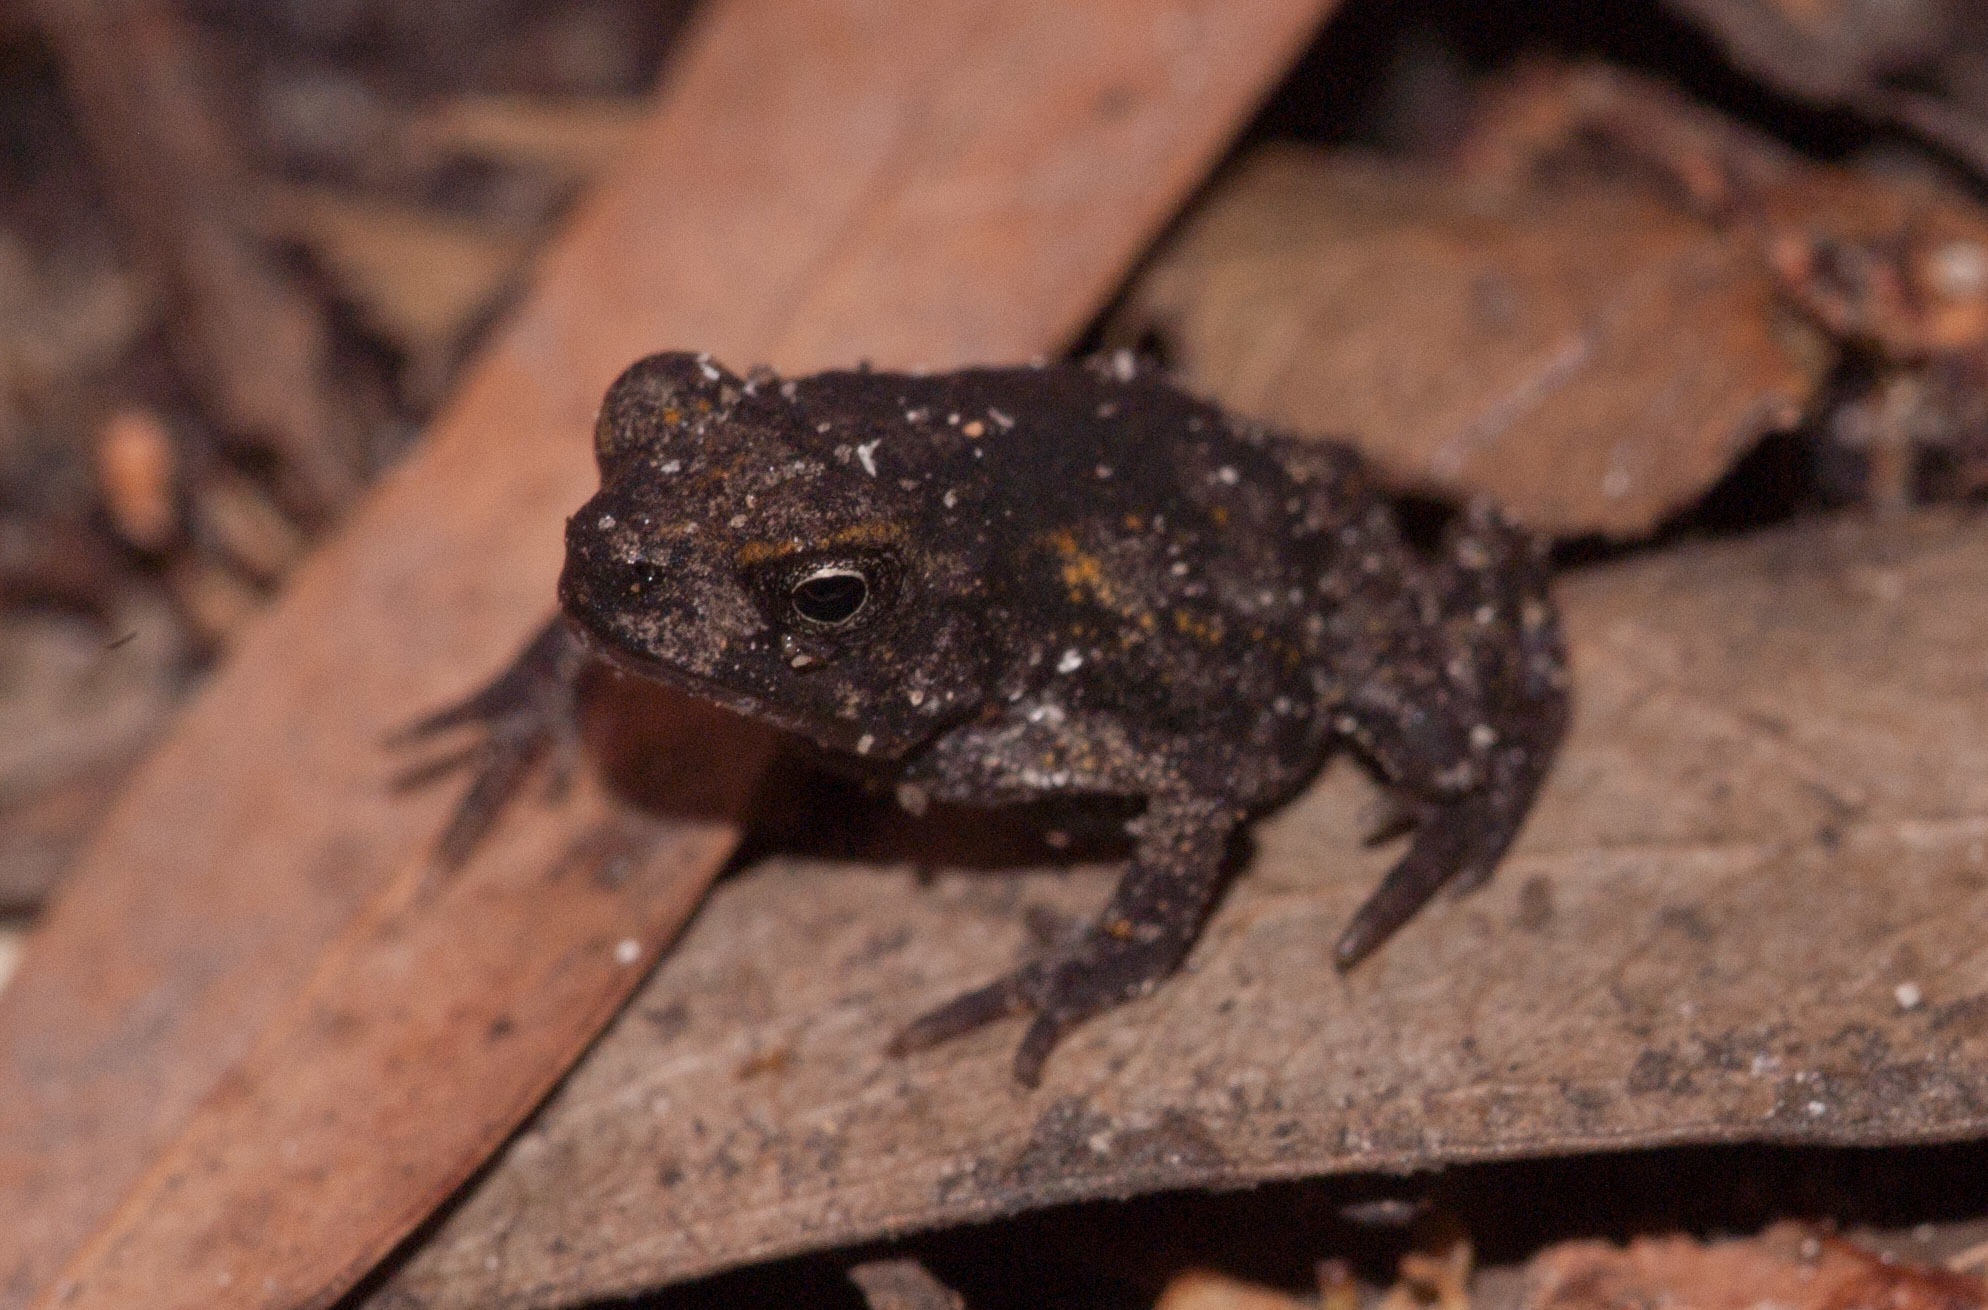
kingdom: Animalia
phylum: Chordata
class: Amphibia
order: Anura
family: Bufonidae
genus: Rhinella
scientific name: Rhinella marina
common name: Cane toad
